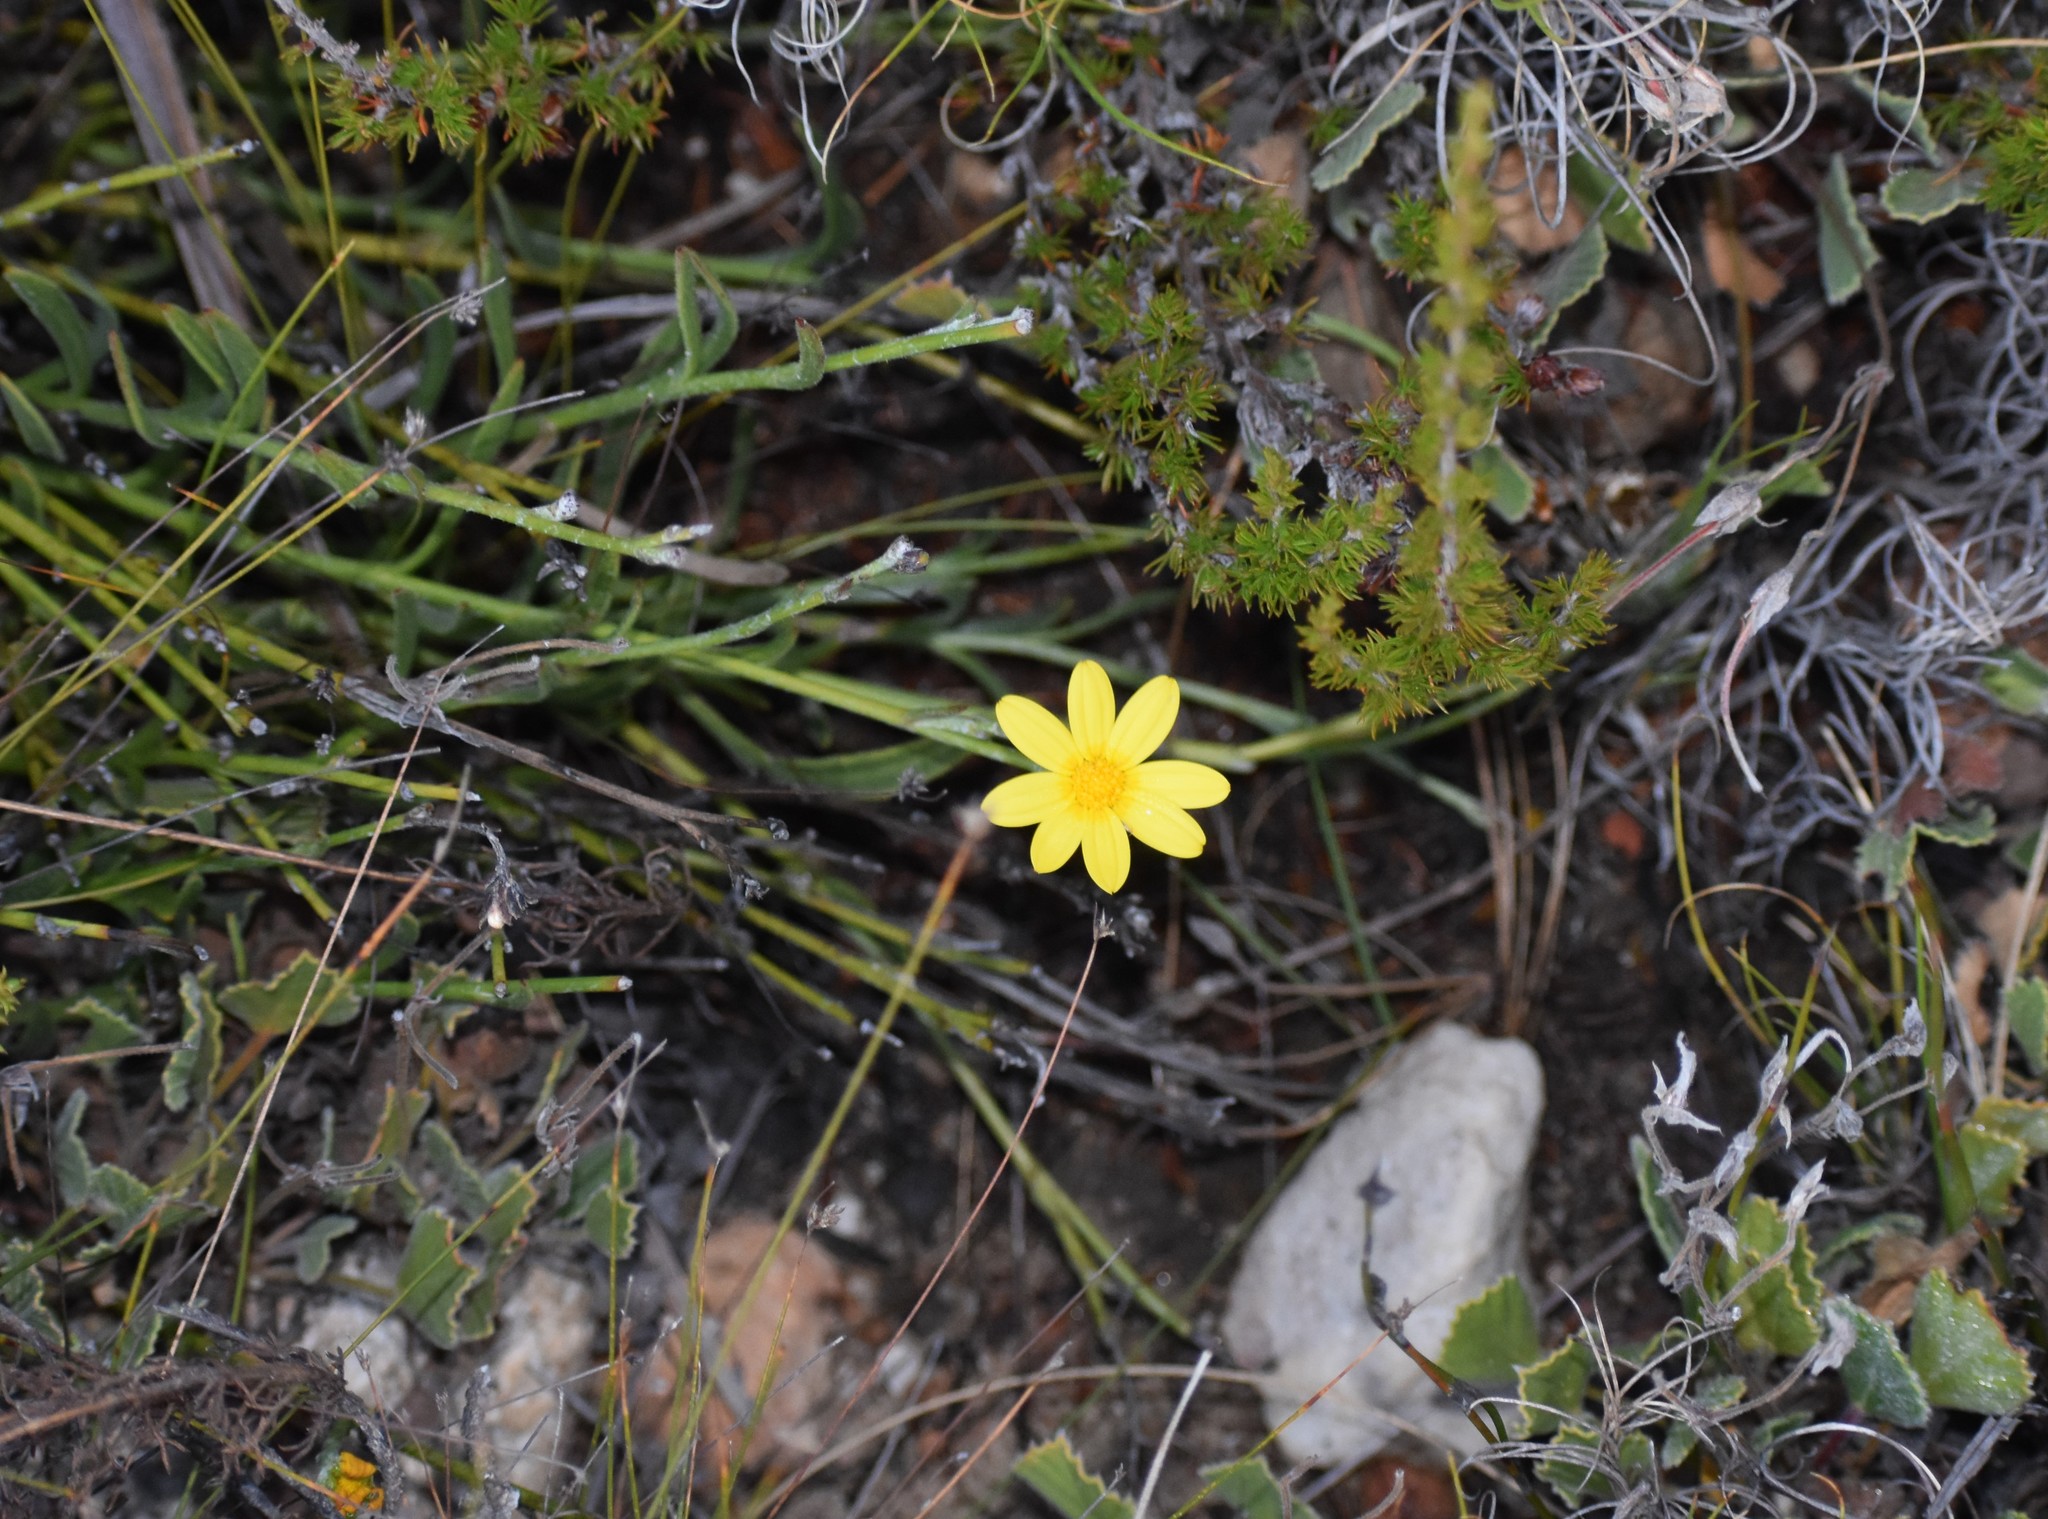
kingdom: Plantae
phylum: Tracheophyta
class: Magnoliopsida
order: Asterales
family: Asteraceae
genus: Osteospermum
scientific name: Osteospermum asperulum
